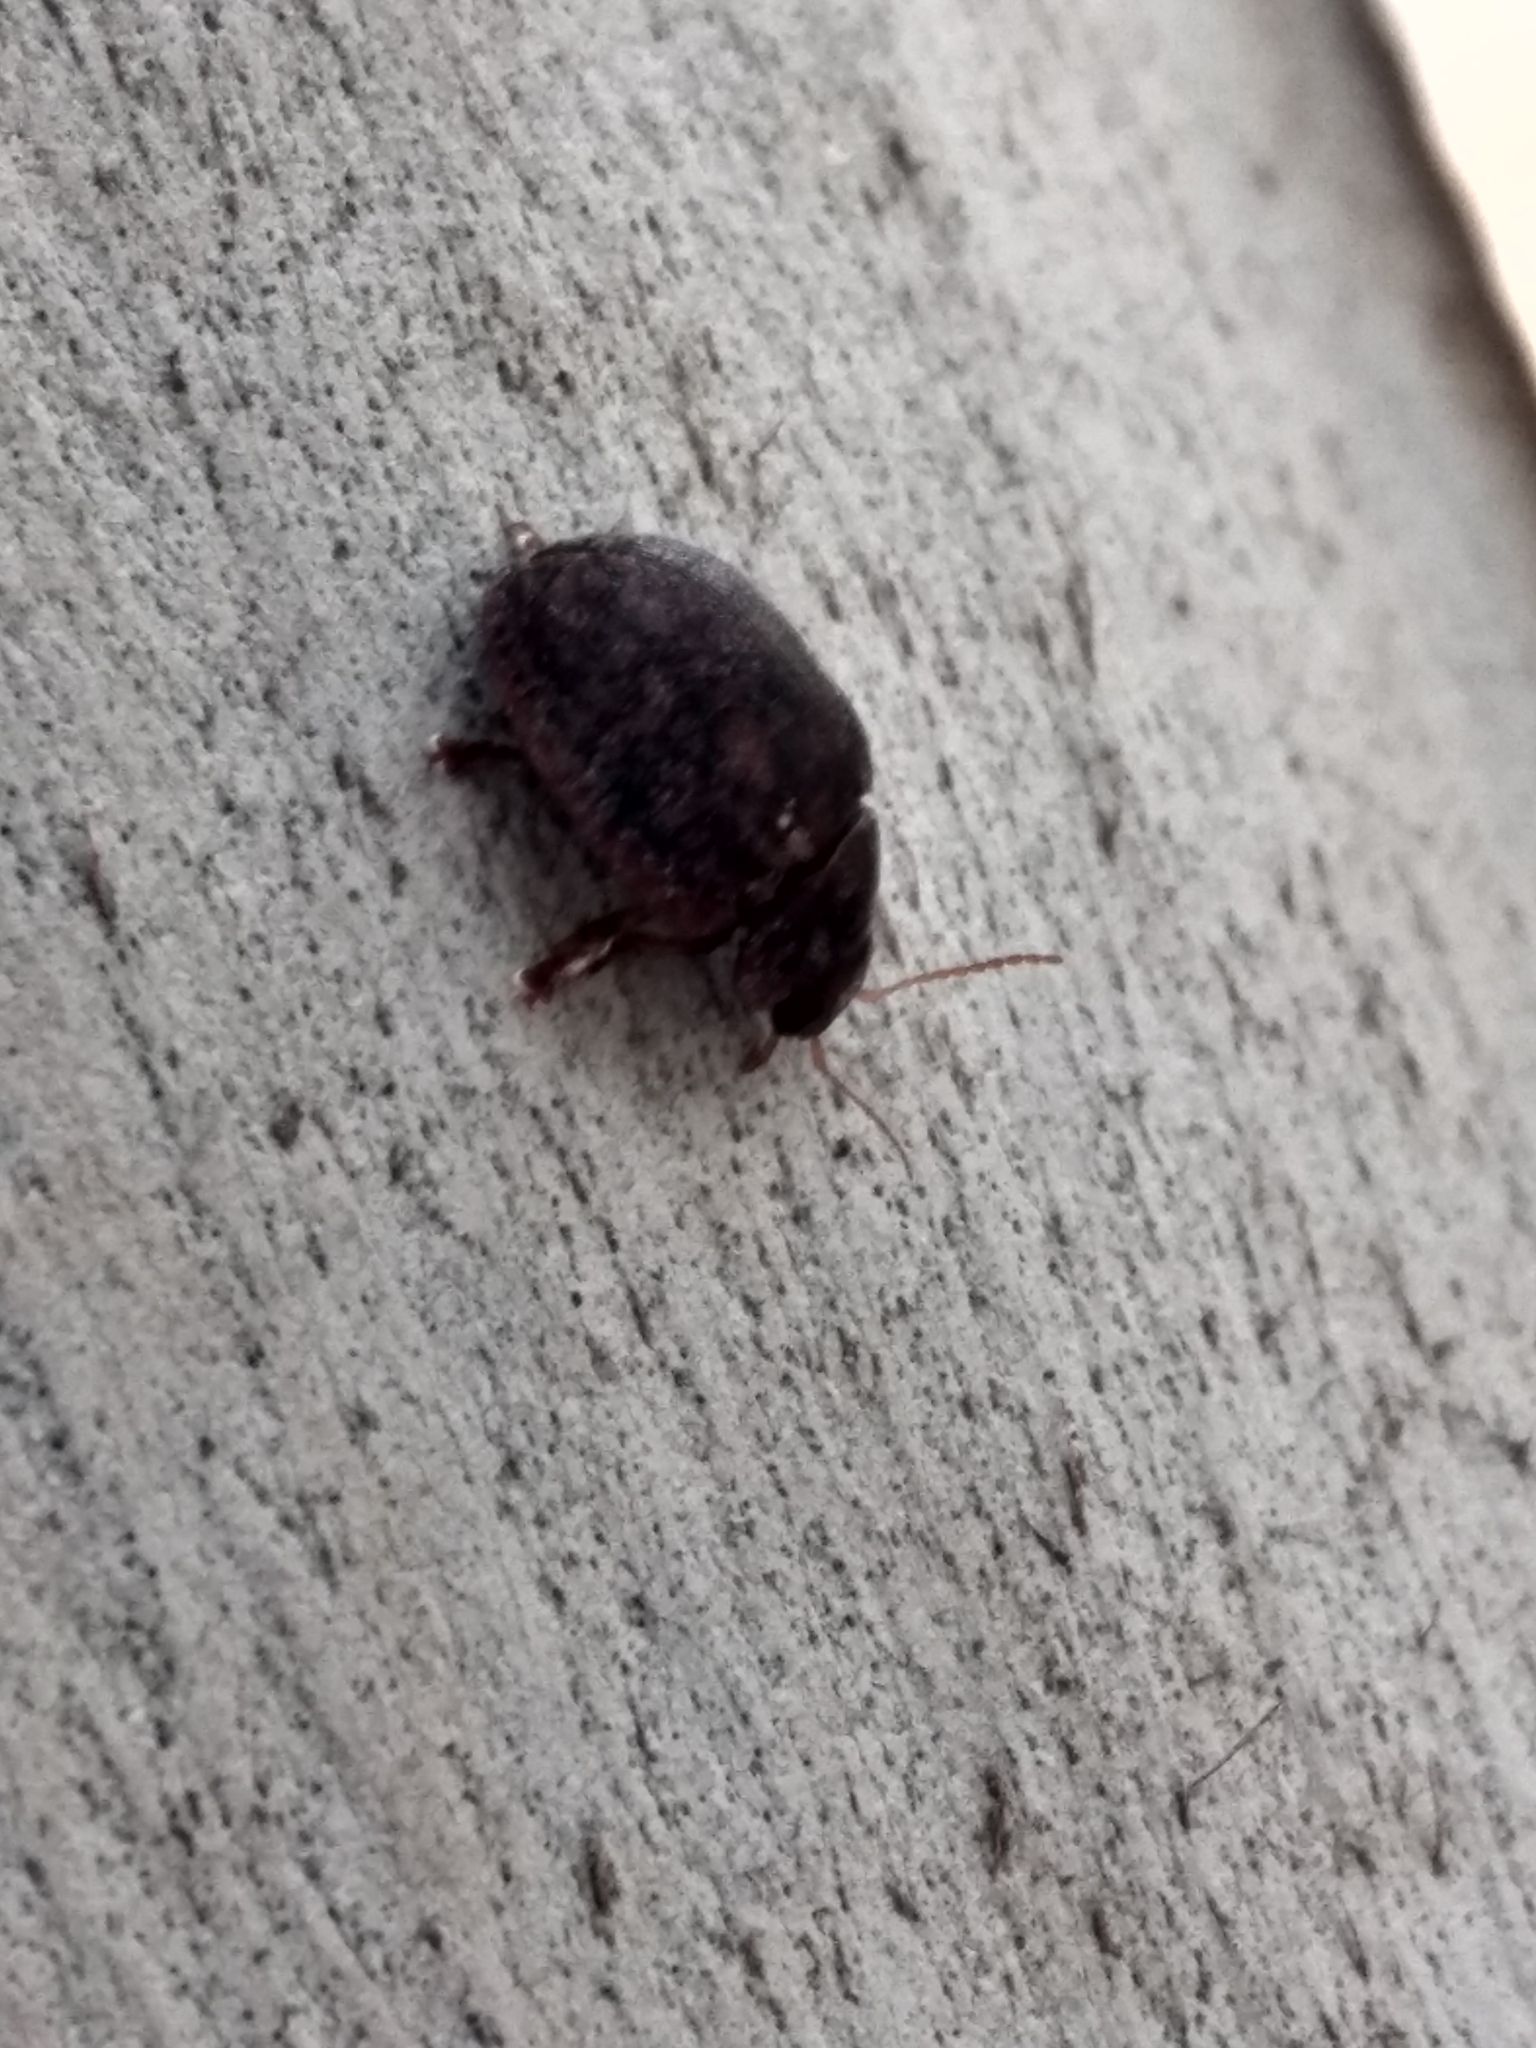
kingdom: Animalia
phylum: Arthropoda
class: Insecta
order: Coleoptera
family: Chrysomelidae
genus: Trachymela
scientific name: Trachymela sloanei
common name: Australian tortoise beetle
